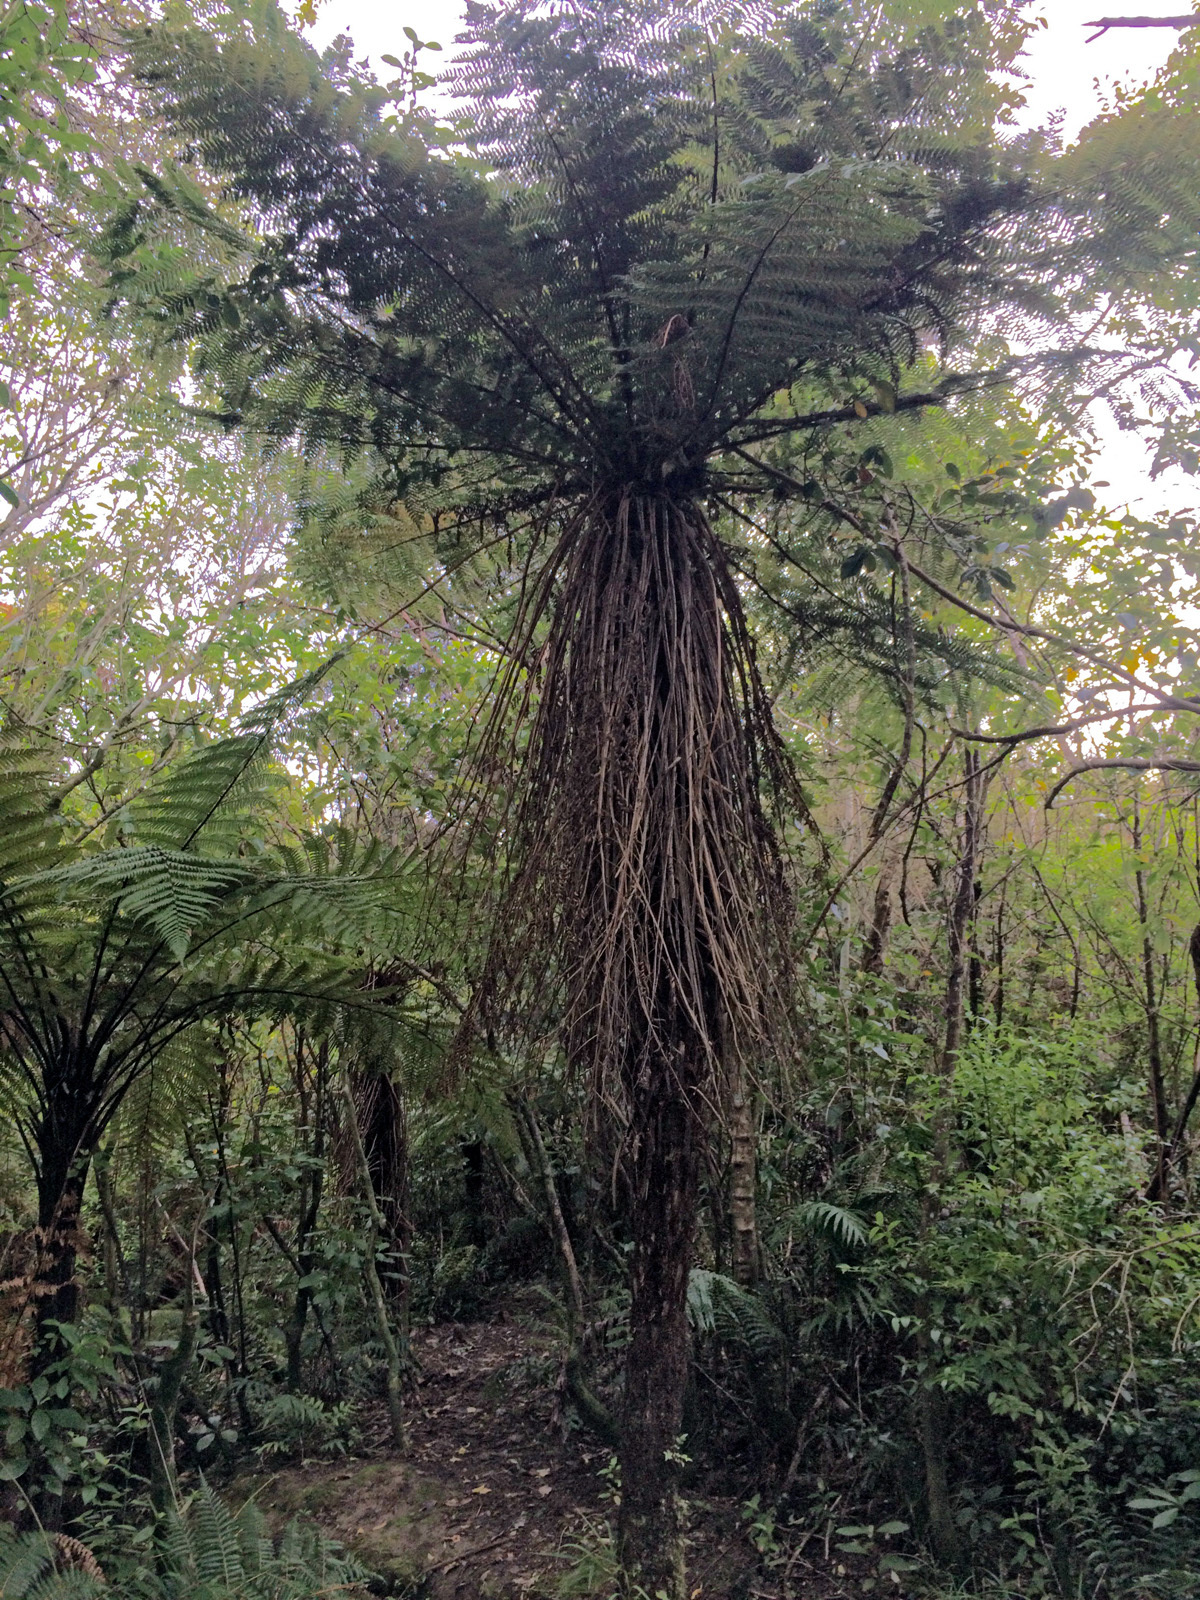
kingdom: Plantae
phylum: Tracheophyta
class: Polypodiopsida
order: Cyatheales
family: Cyatheaceae
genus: Alsophila
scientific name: Alsophila smithii
